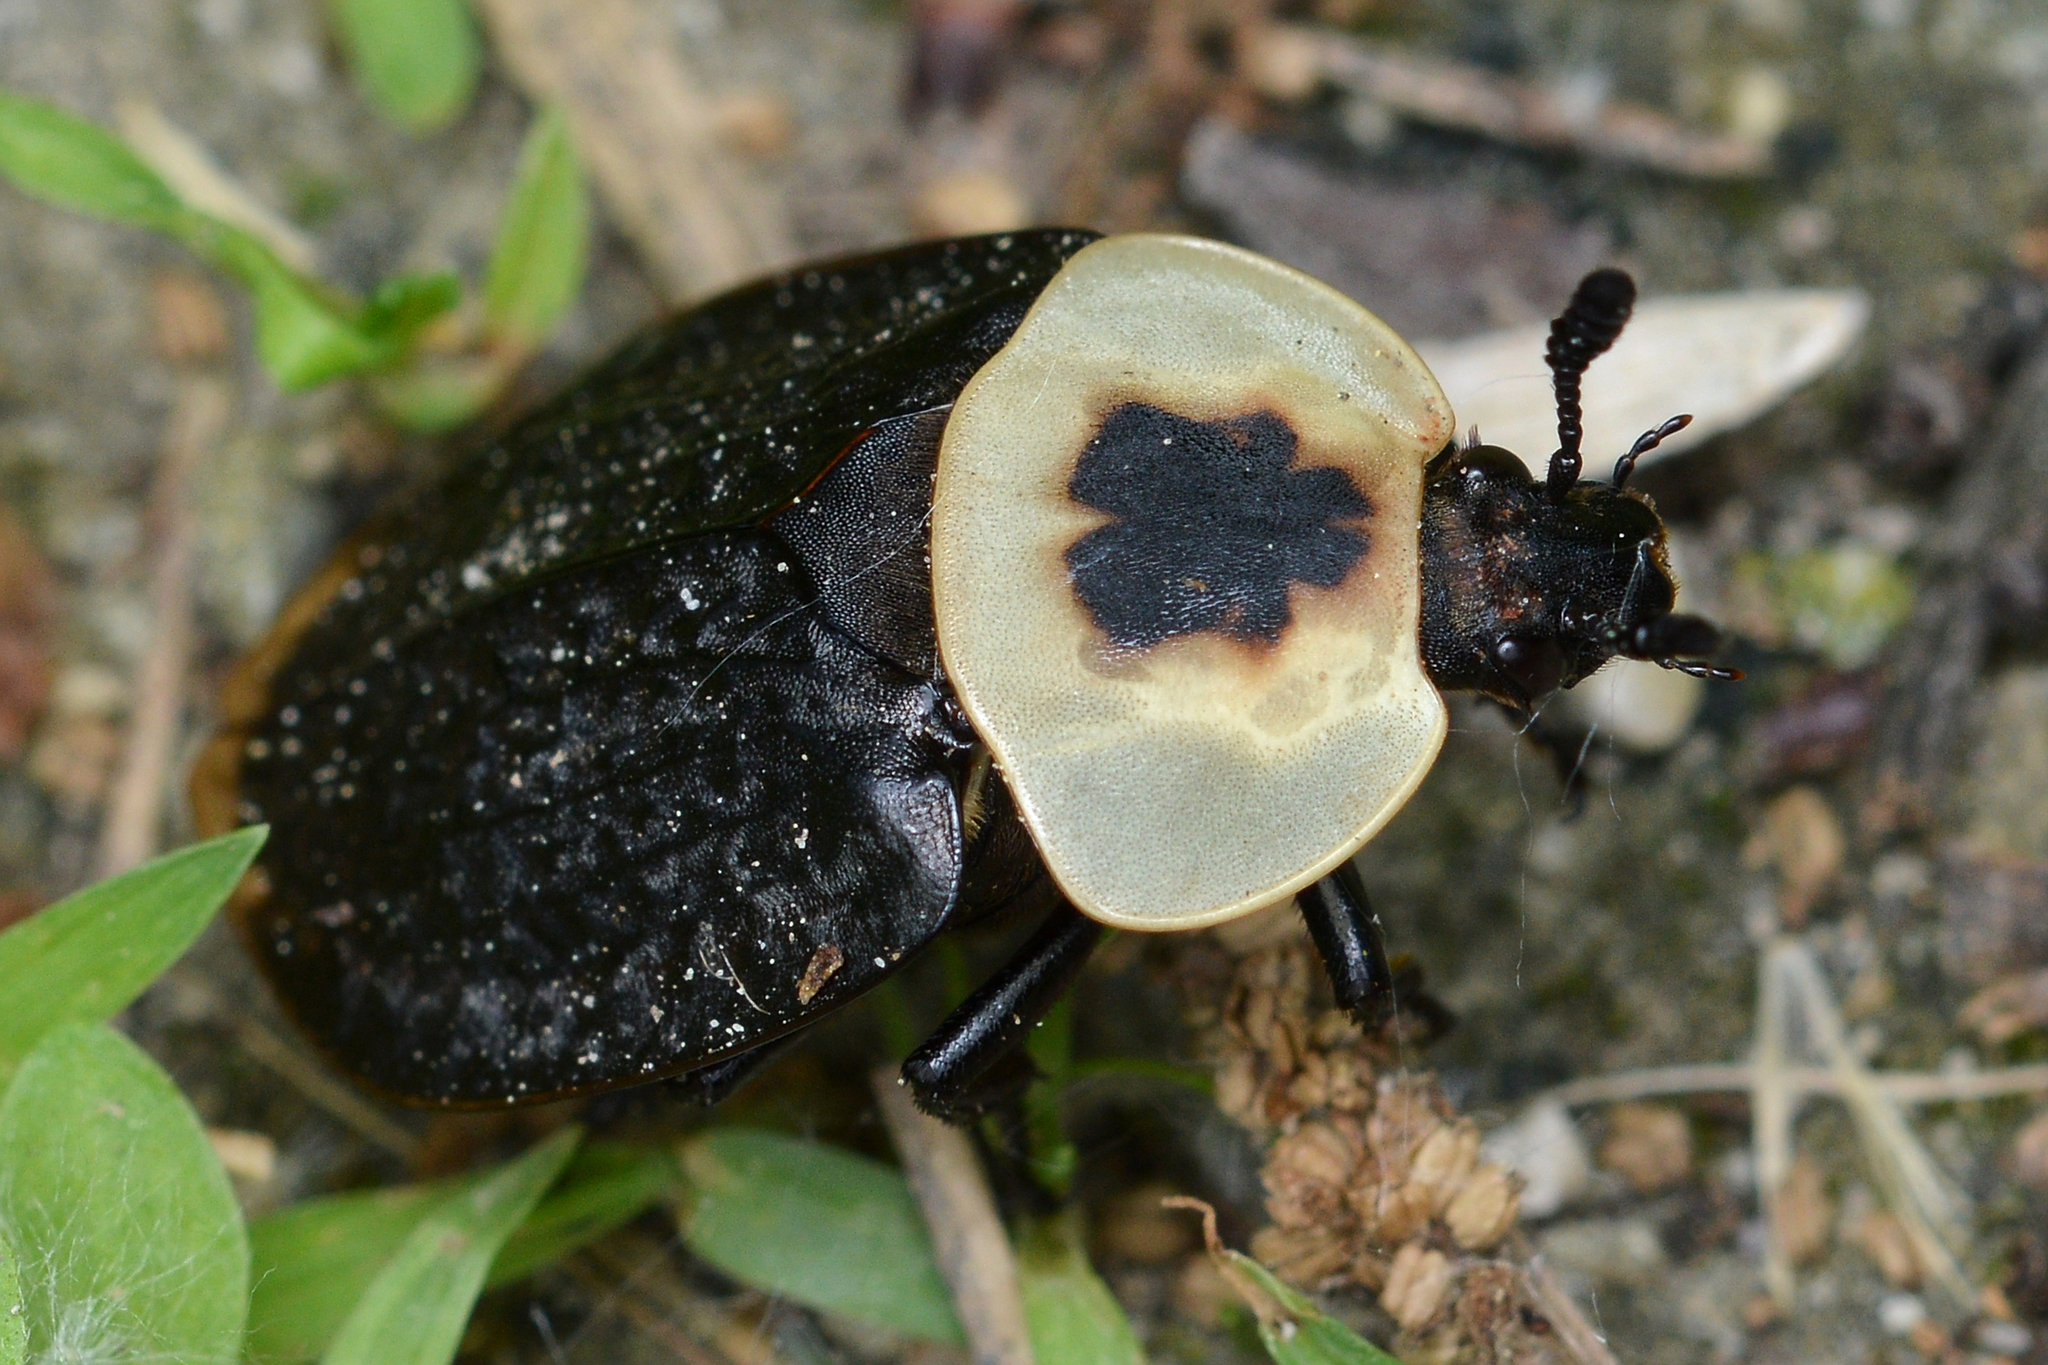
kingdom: Animalia
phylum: Arthropoda
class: Insecta
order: Coleoptera
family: Staphylinidae
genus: Necrophila
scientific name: Necrophila americana
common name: American carrion beetle
